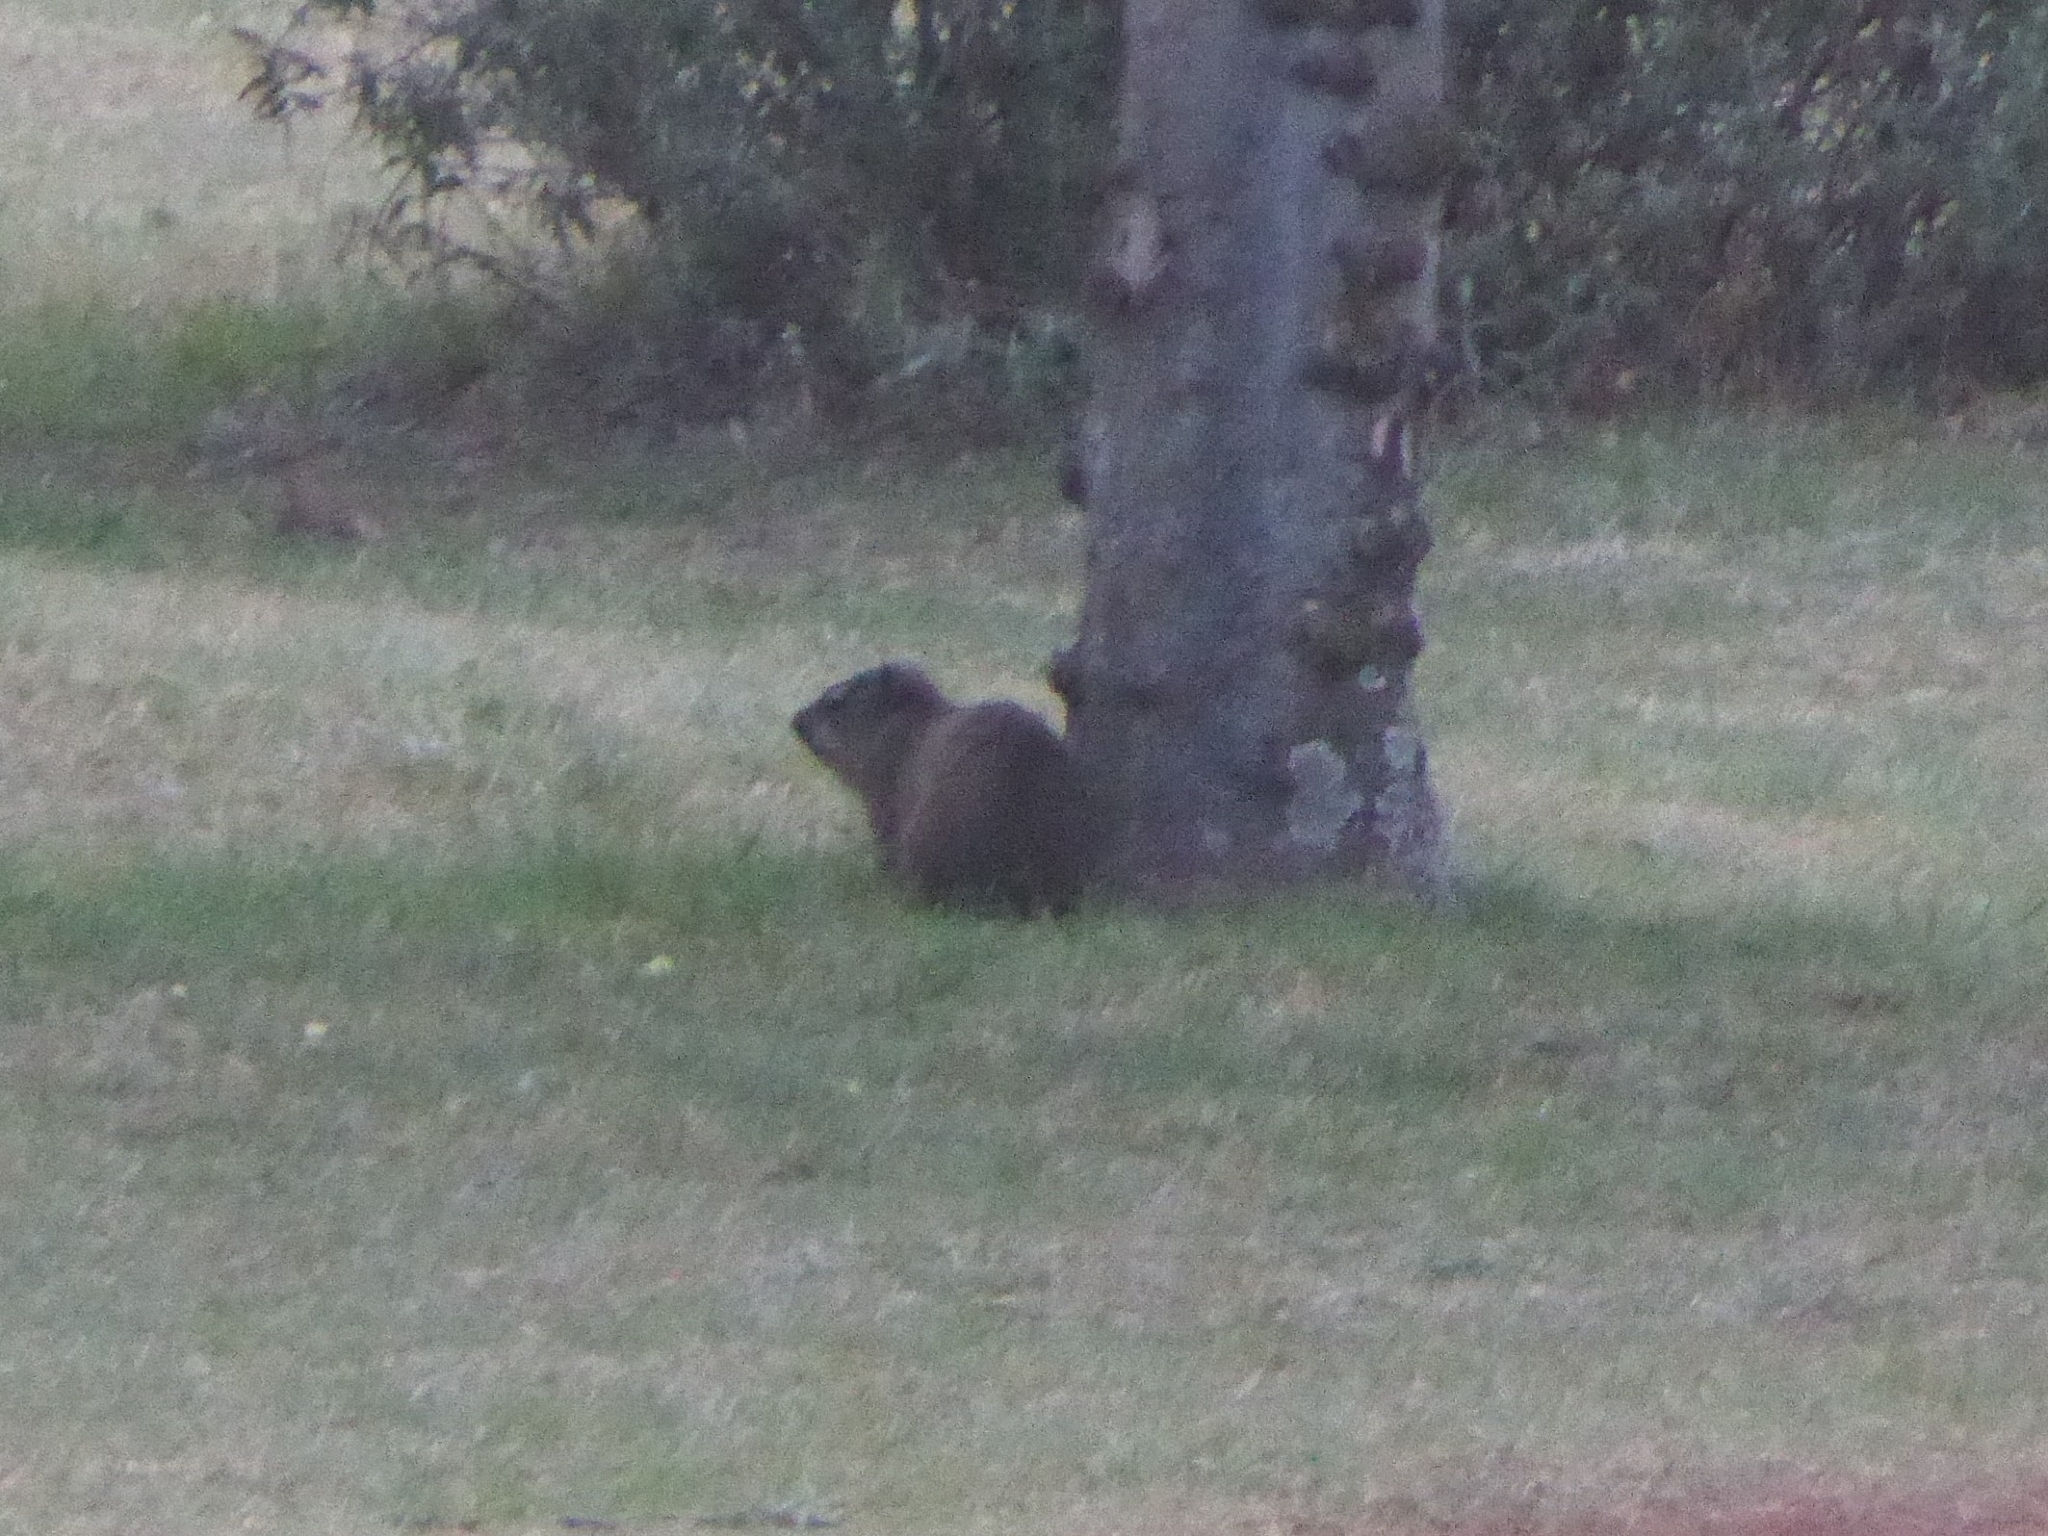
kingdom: Animalia
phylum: Chordata
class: Mammalia
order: Hyracoidea
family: Procaviidae
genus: Procavia
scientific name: Procavia capensis
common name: Rock hyrax
